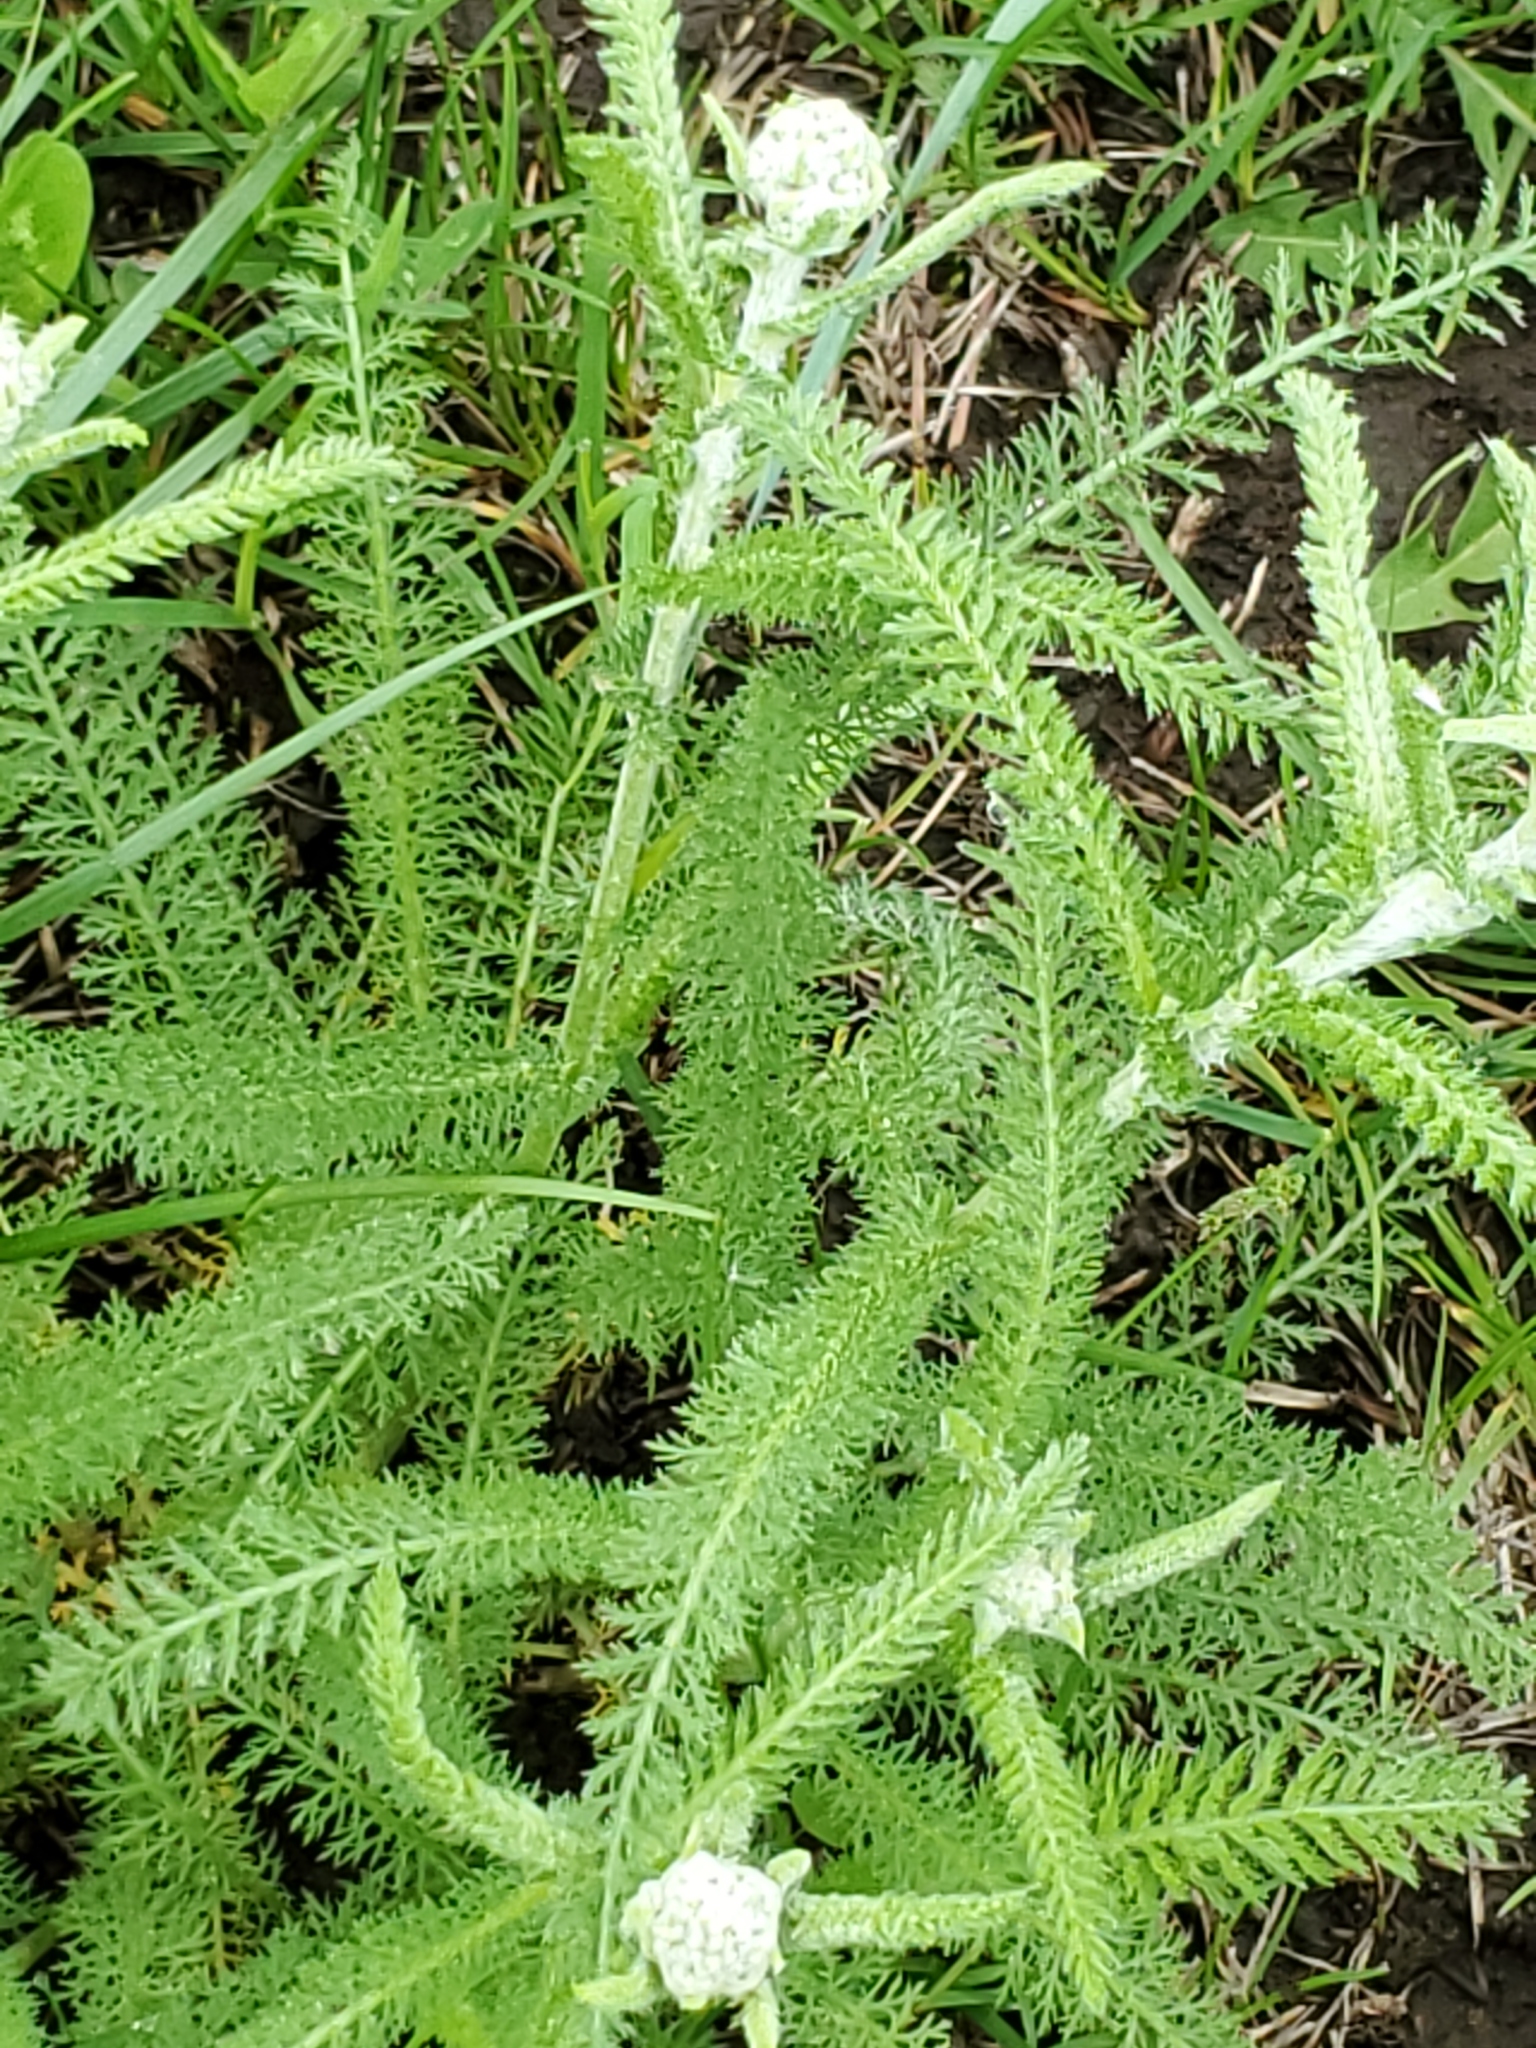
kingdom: Plantae
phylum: Tracheophyta
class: Magnoliopsida
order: Asterales
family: Asteraceae
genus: Achillea
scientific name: Achillea millefolium
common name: Yarrow
